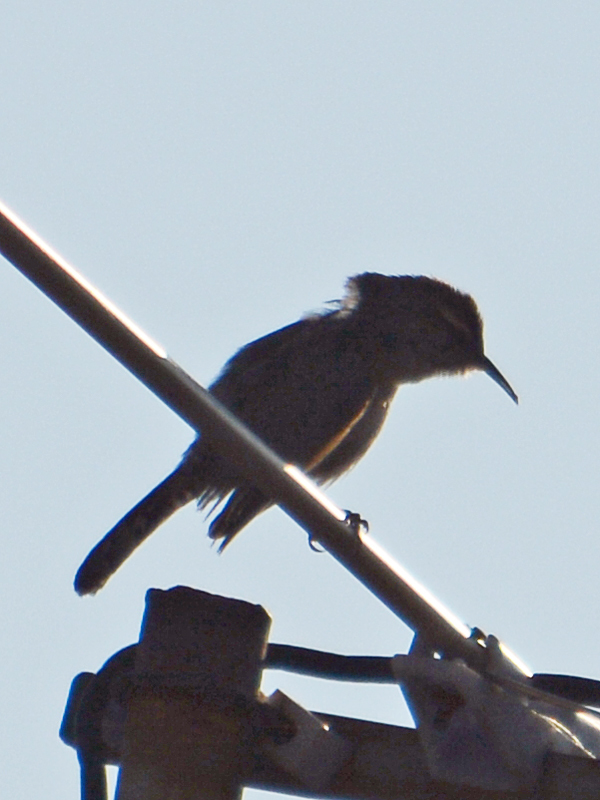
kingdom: Animalia
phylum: Chordata
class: Aves
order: Passeriformes
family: Troglodytidae
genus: Thryomanes
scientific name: Thryomanes bewickii
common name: Bewick's wren
